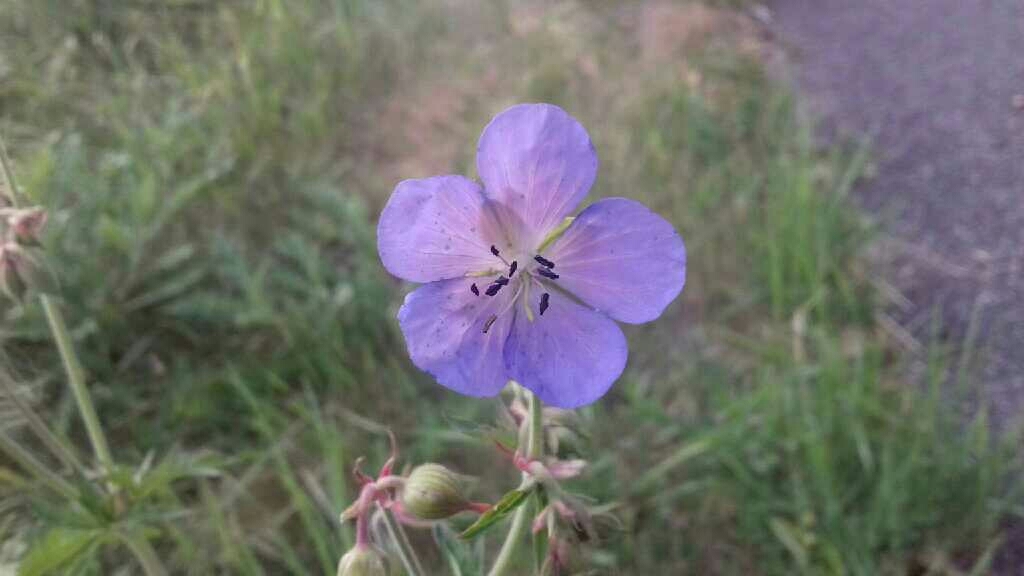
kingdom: Plantae
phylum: Tracheophyta
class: Magnoliopsida
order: Geraniales
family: Geraniaceae
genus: Geranium
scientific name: Geranium pratense
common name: Meadow crane's-bill
